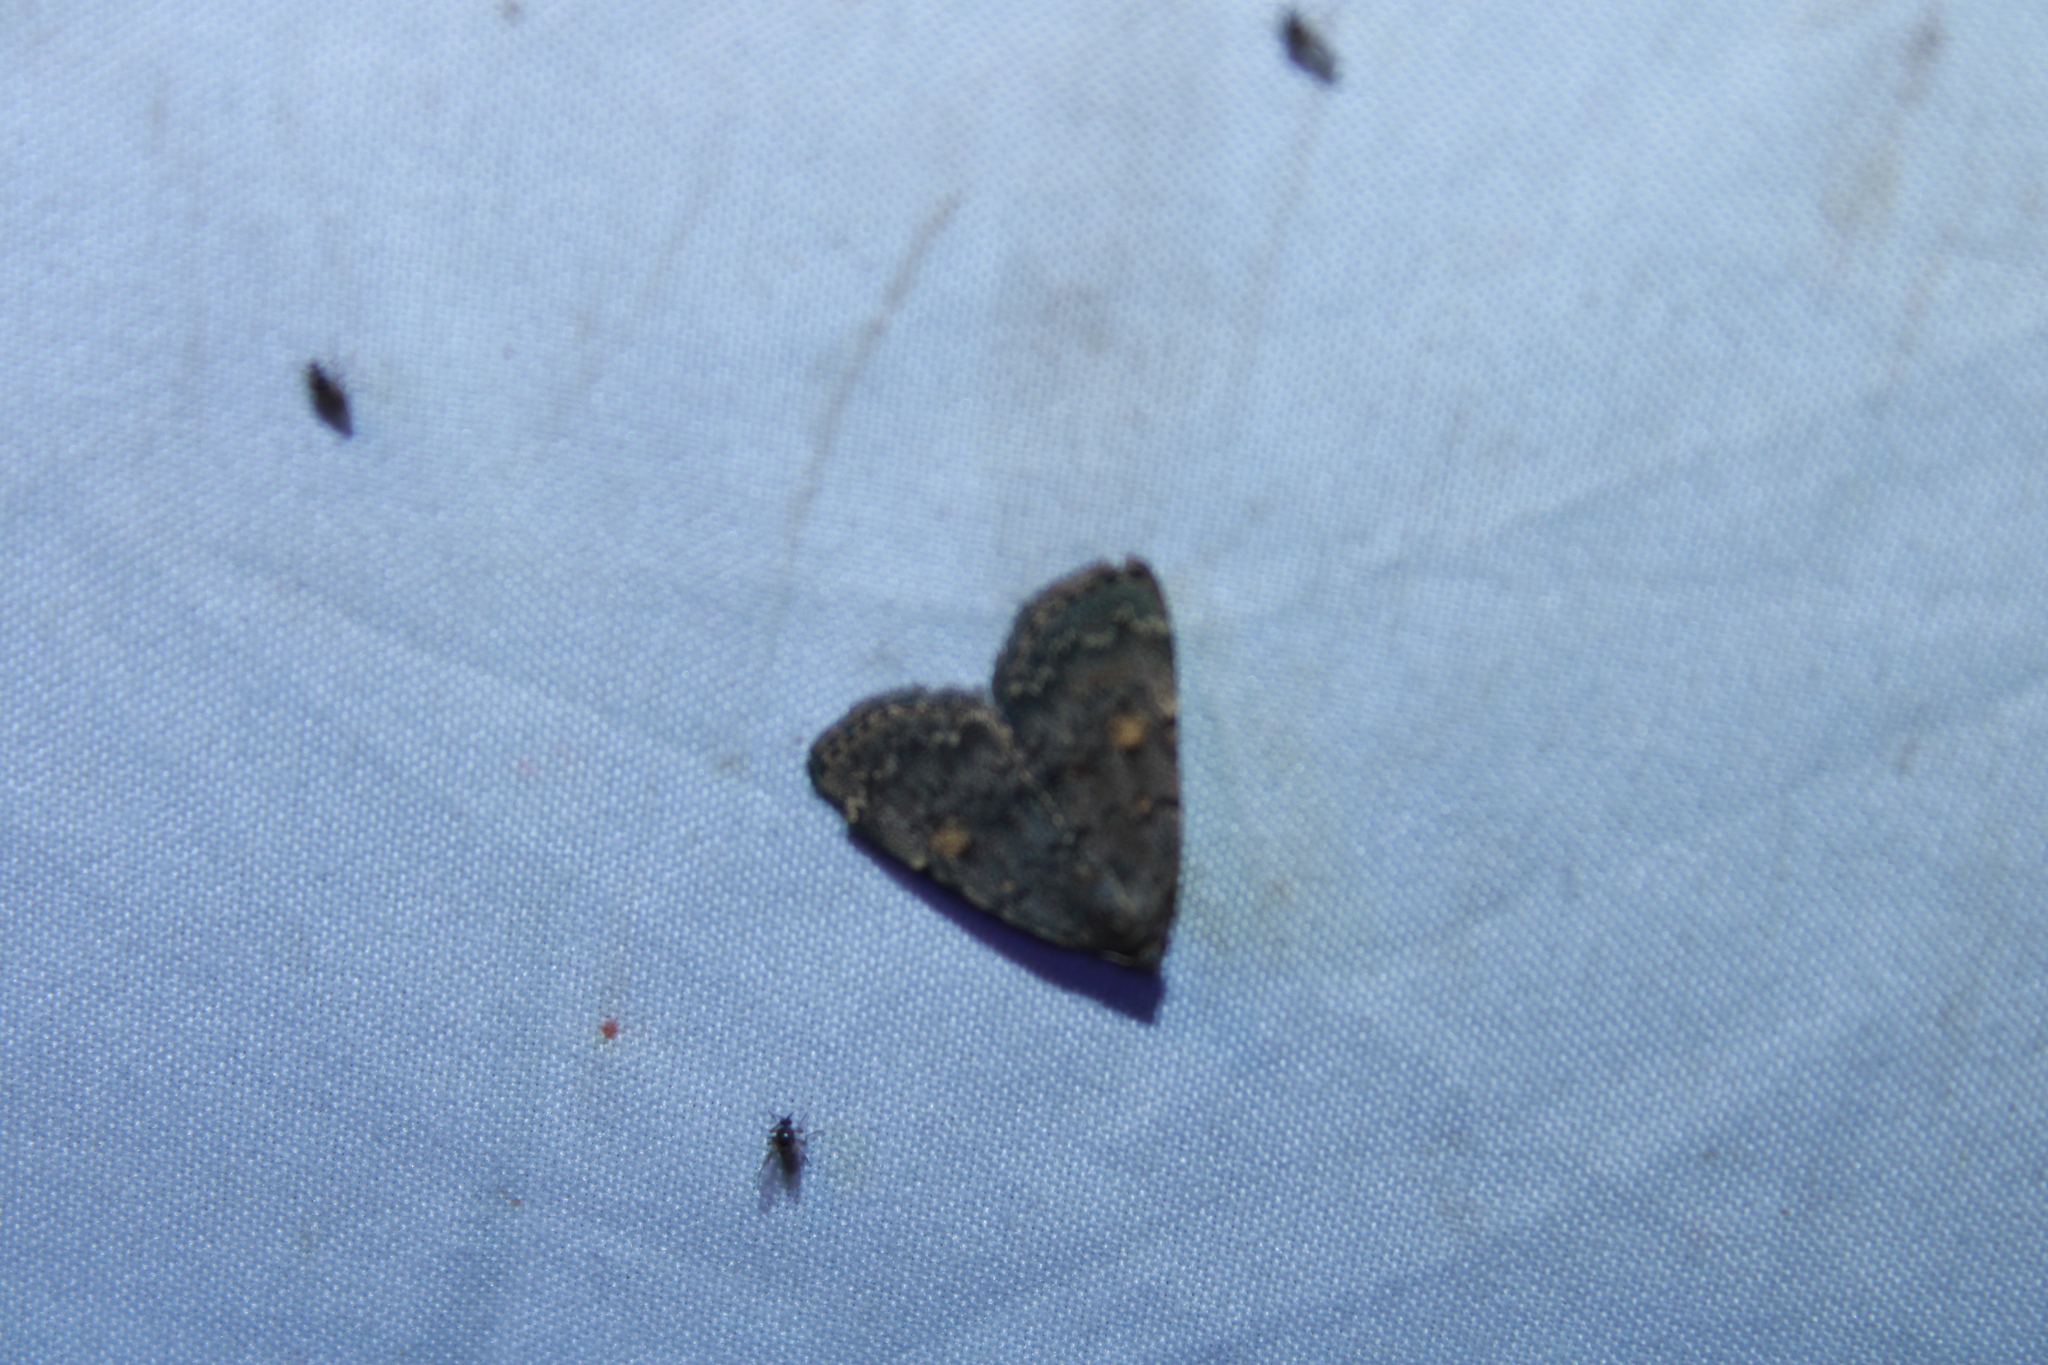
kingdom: Animalia
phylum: Arthropoda
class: Insecta
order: Lepidoptera
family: Erebidae
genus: Idia
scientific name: Idia aemula
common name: Common idia moth
